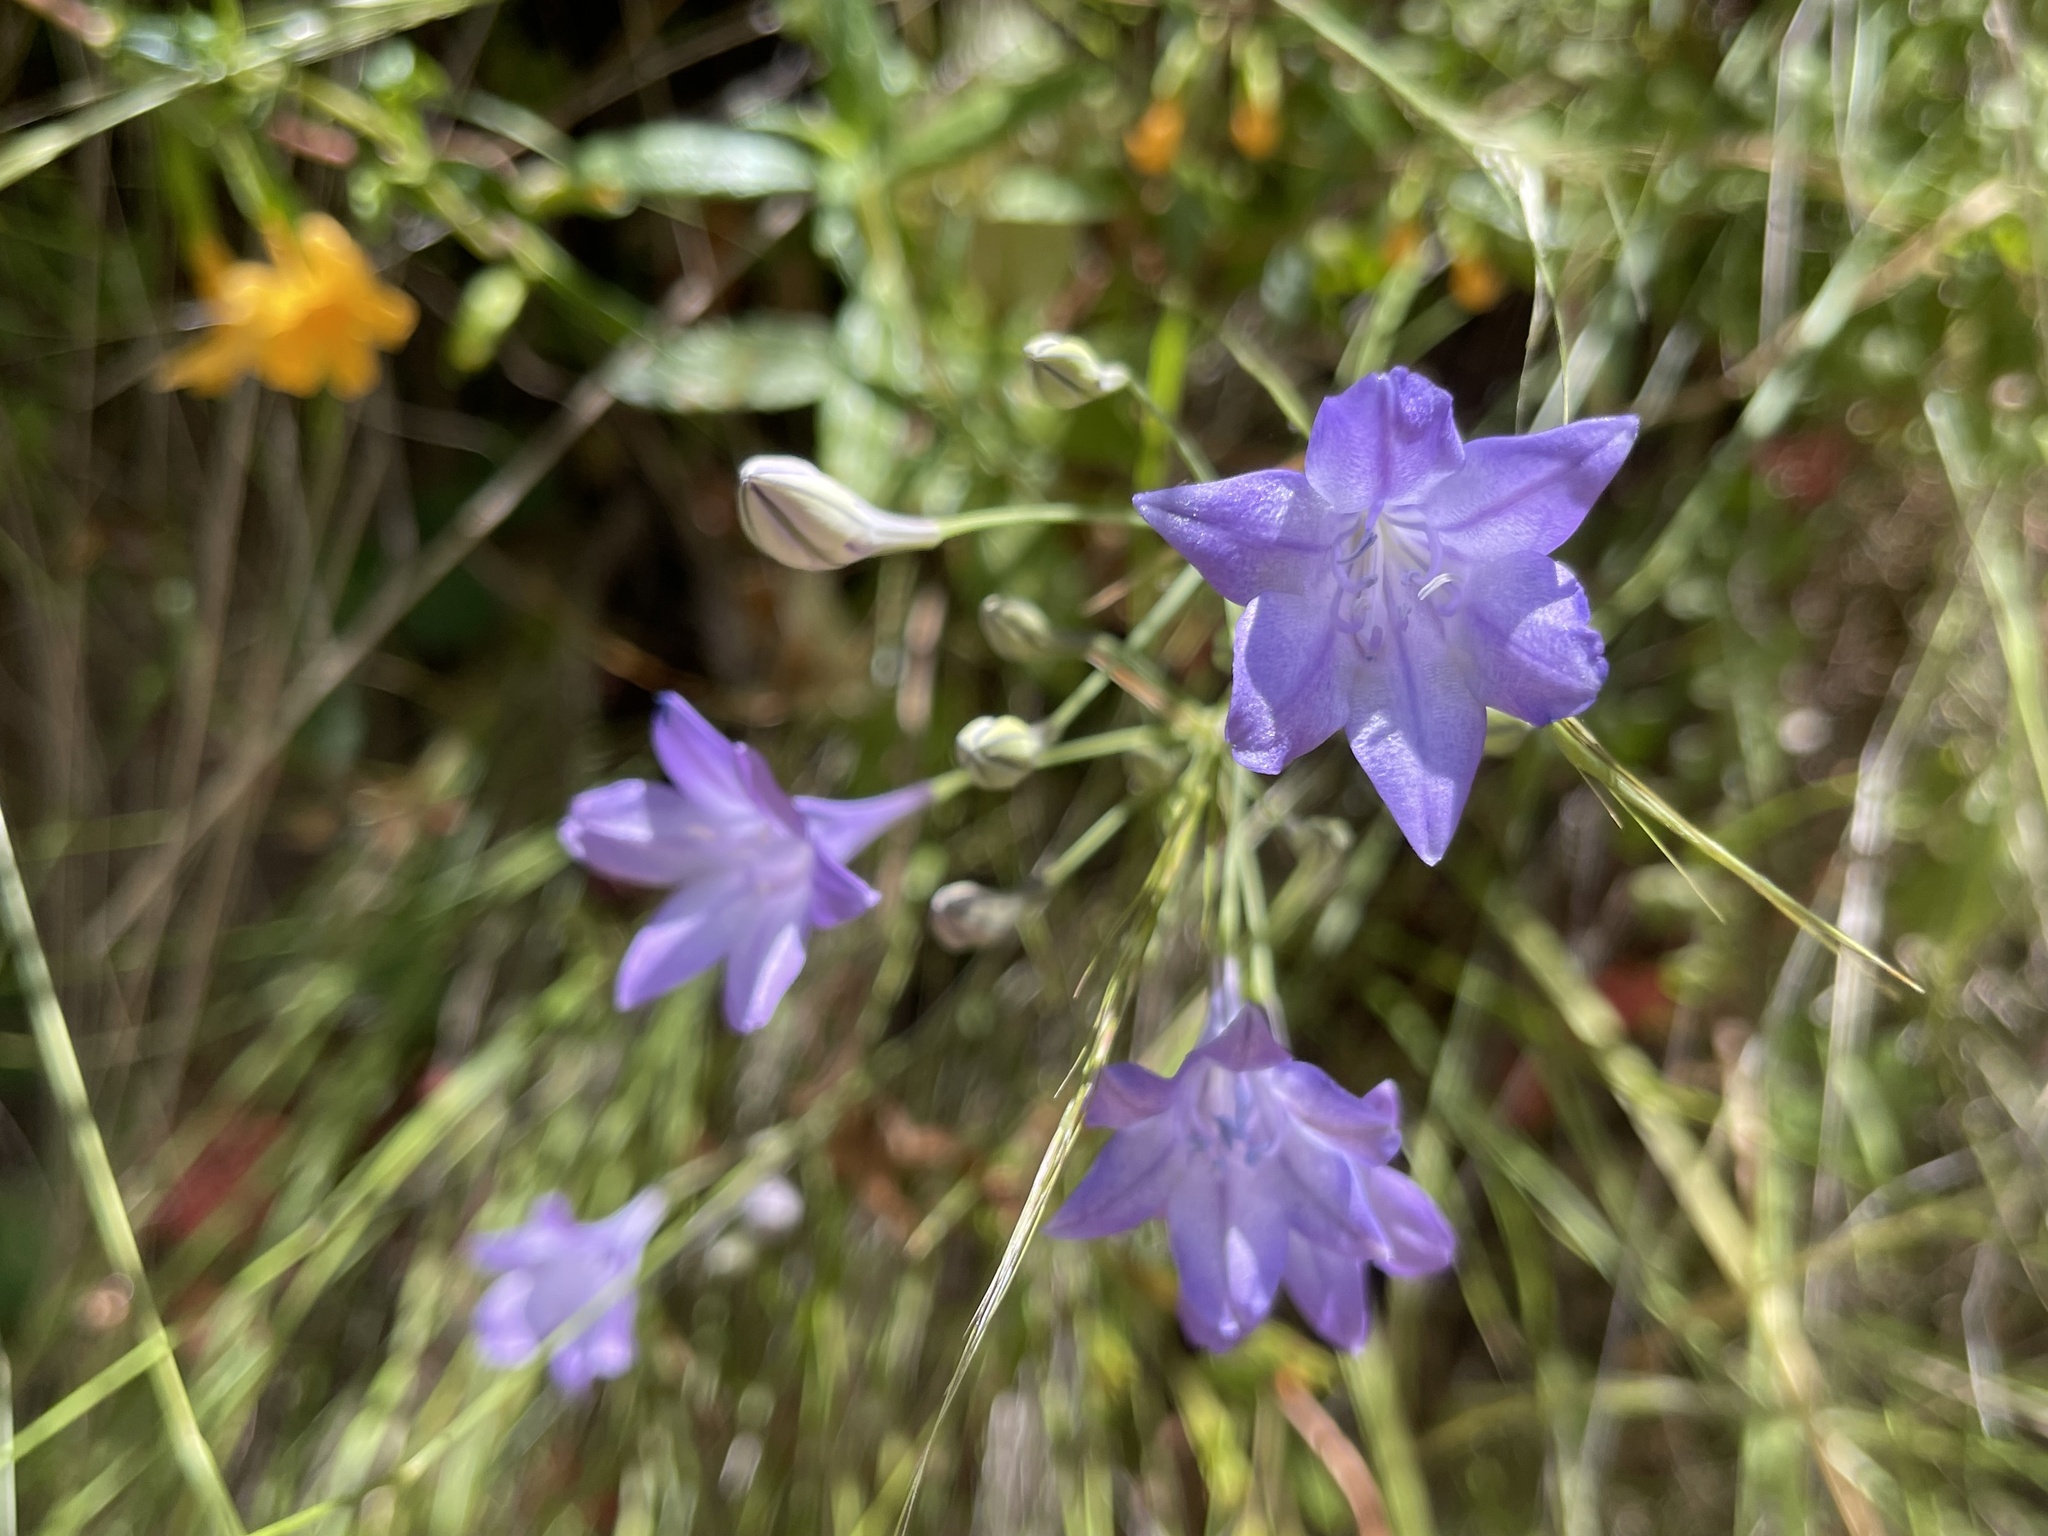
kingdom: Plantae
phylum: Tracheophyta
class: Liliopsida
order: Asparagales
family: Asparagaceae
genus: Triteleia
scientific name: Triteleia laxa
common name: Triplet-lily
